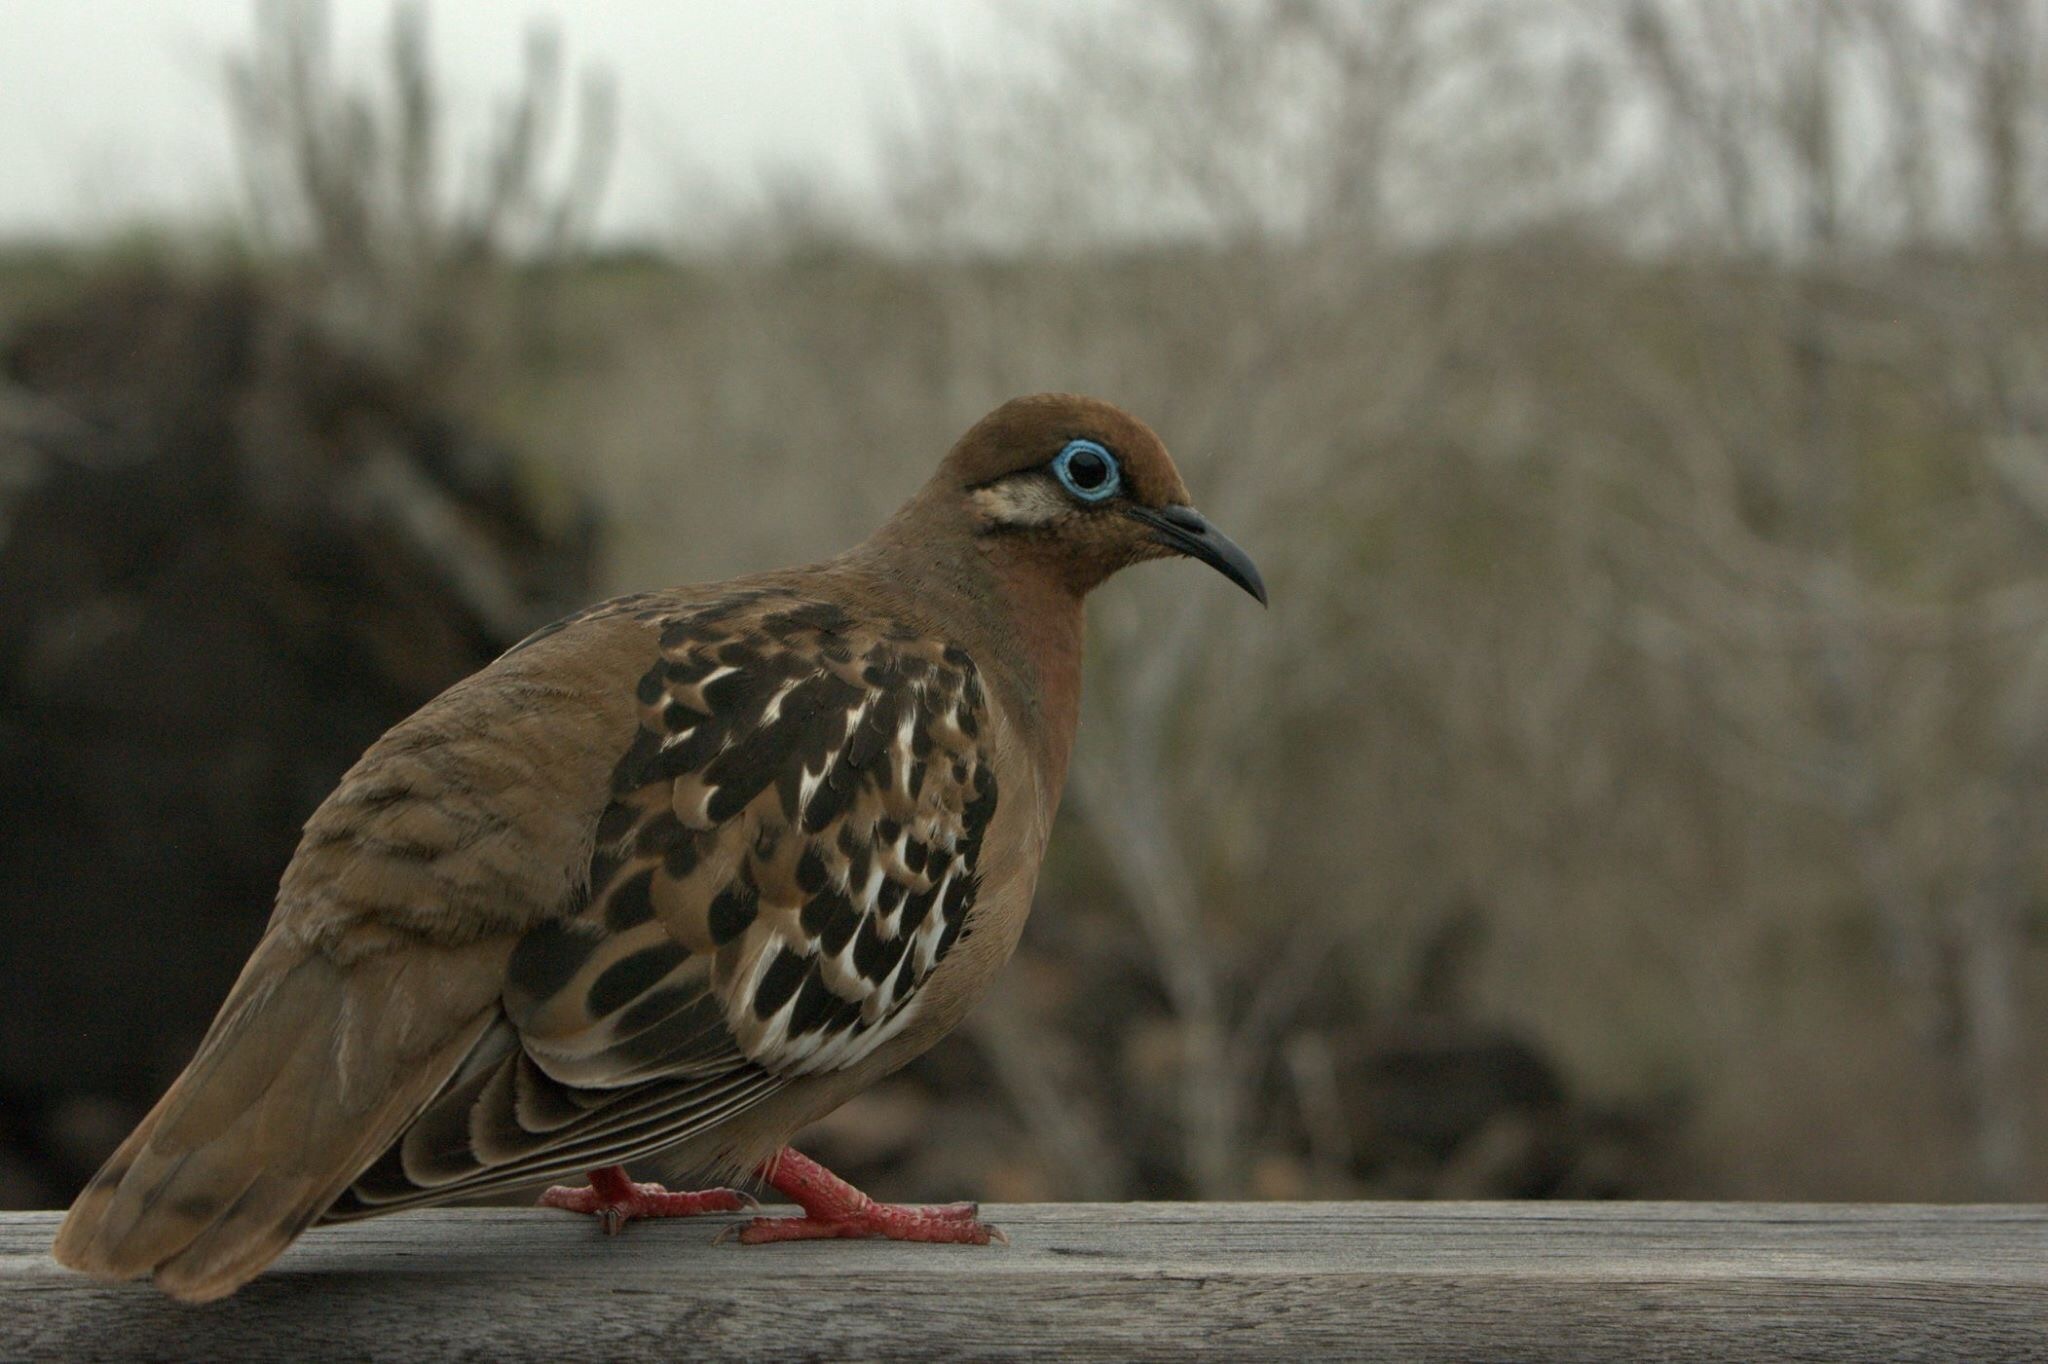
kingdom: Animalia
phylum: Chordata
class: Aves
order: Columbiformes
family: Columbidae
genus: Zenaida
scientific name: Zenaida galapagoensis
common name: Galapagos dove
